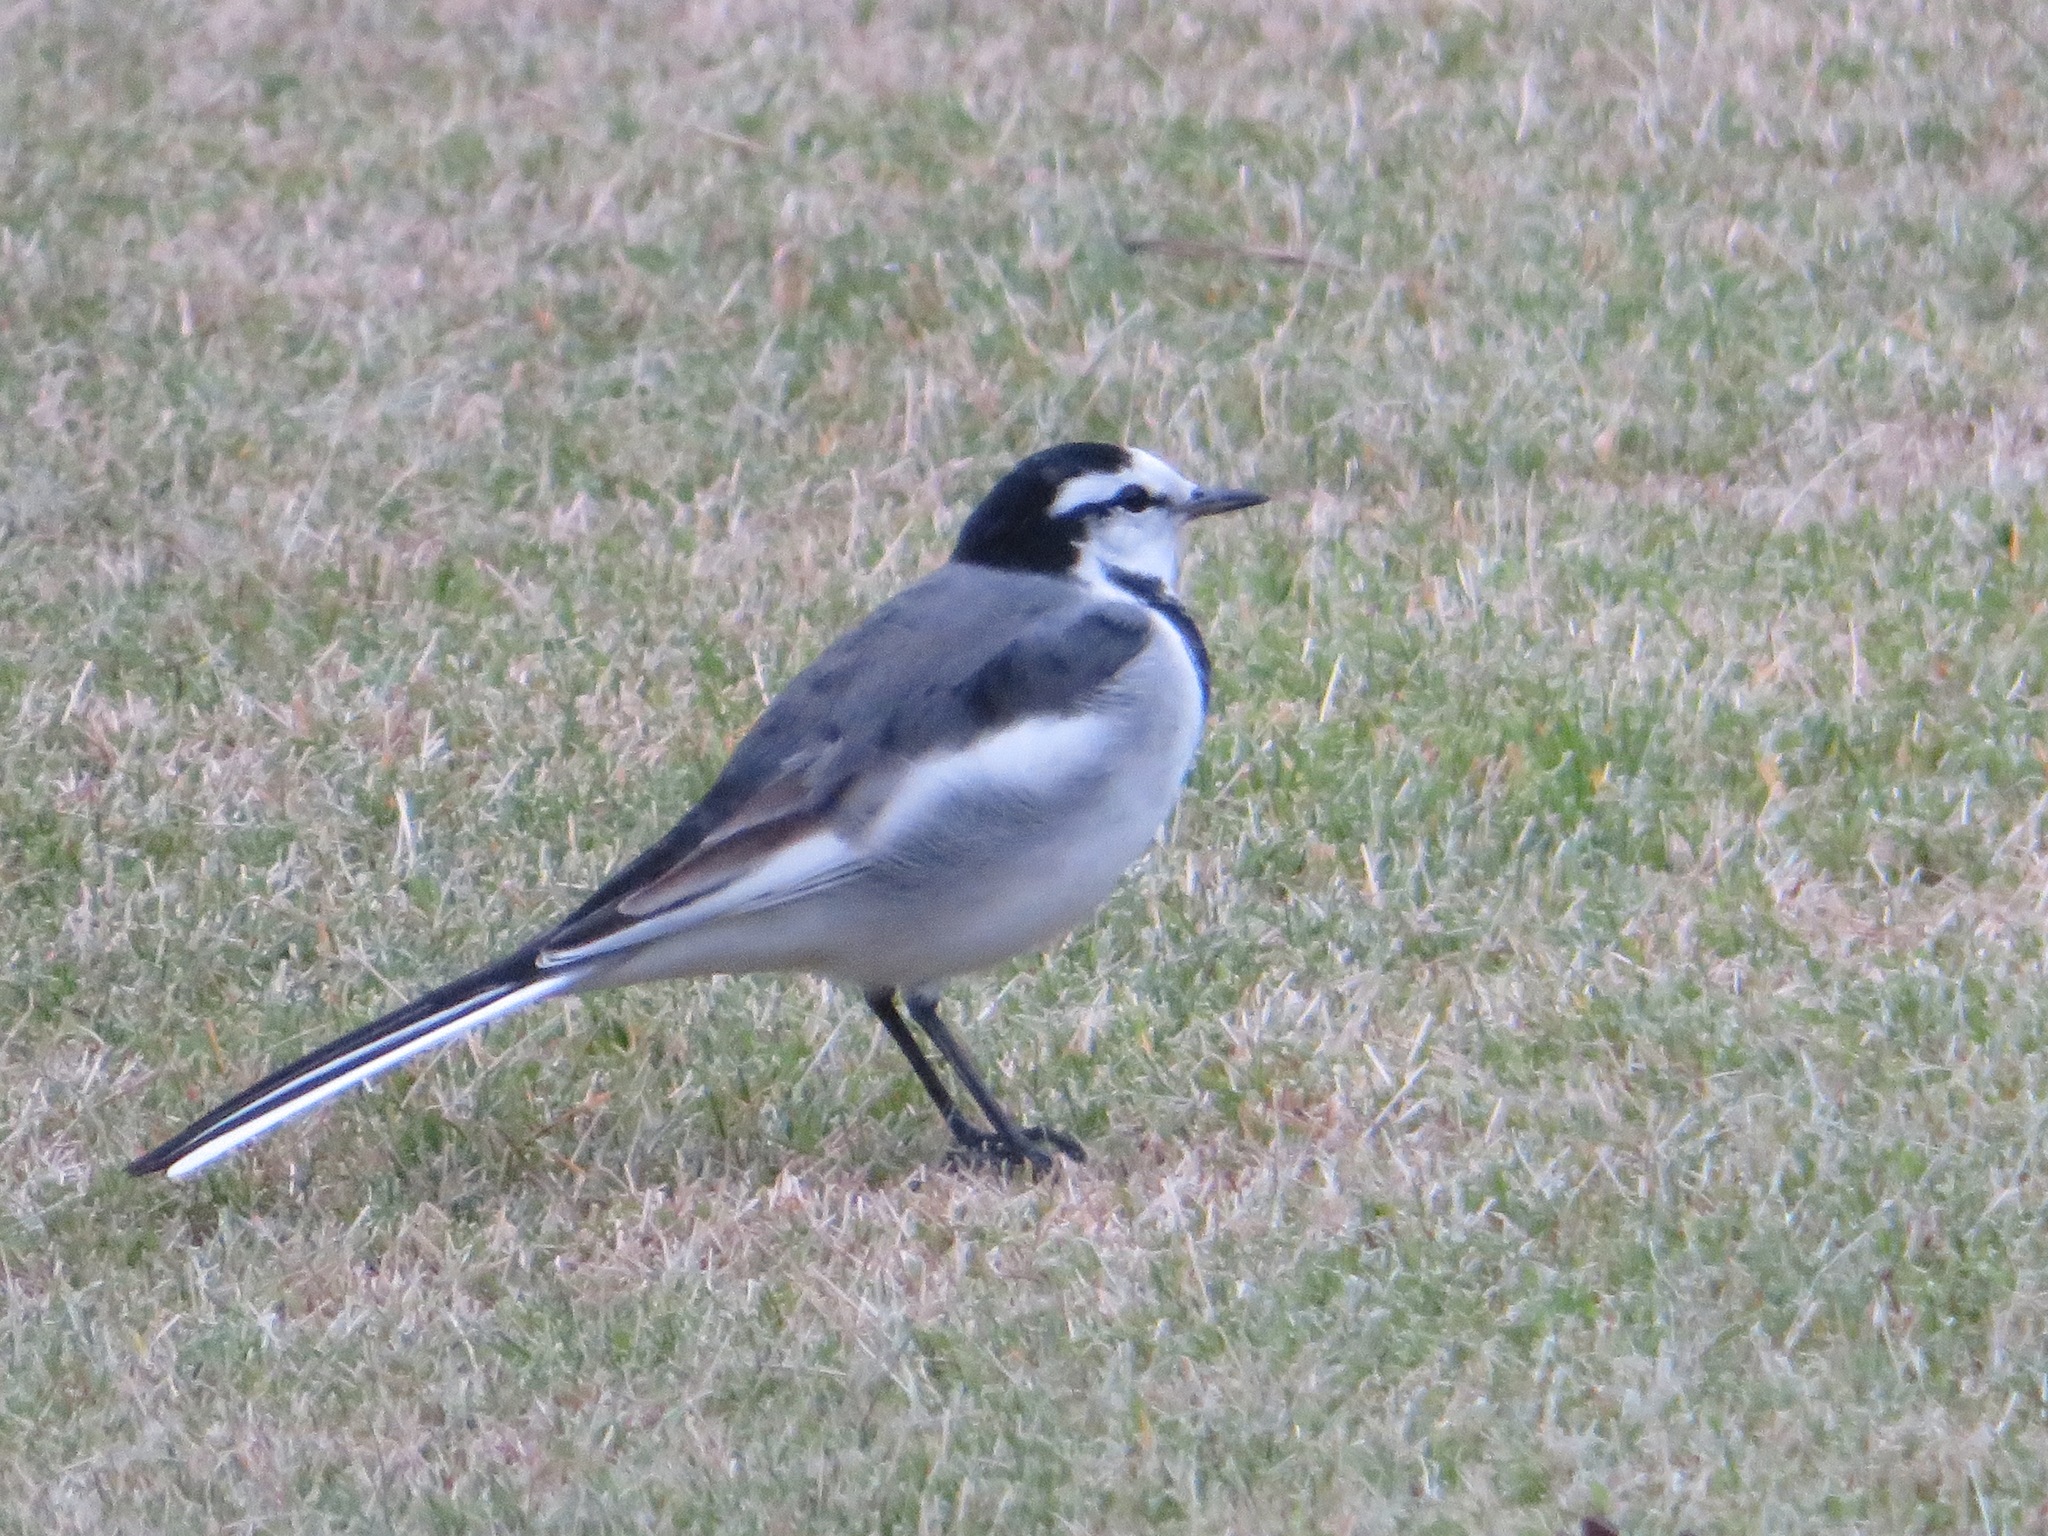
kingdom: Animalia
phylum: Chordata
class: Aves
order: Passeriformes
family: Motacillidae
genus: Motacilla
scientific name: Motacilla alba
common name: White wagtail
